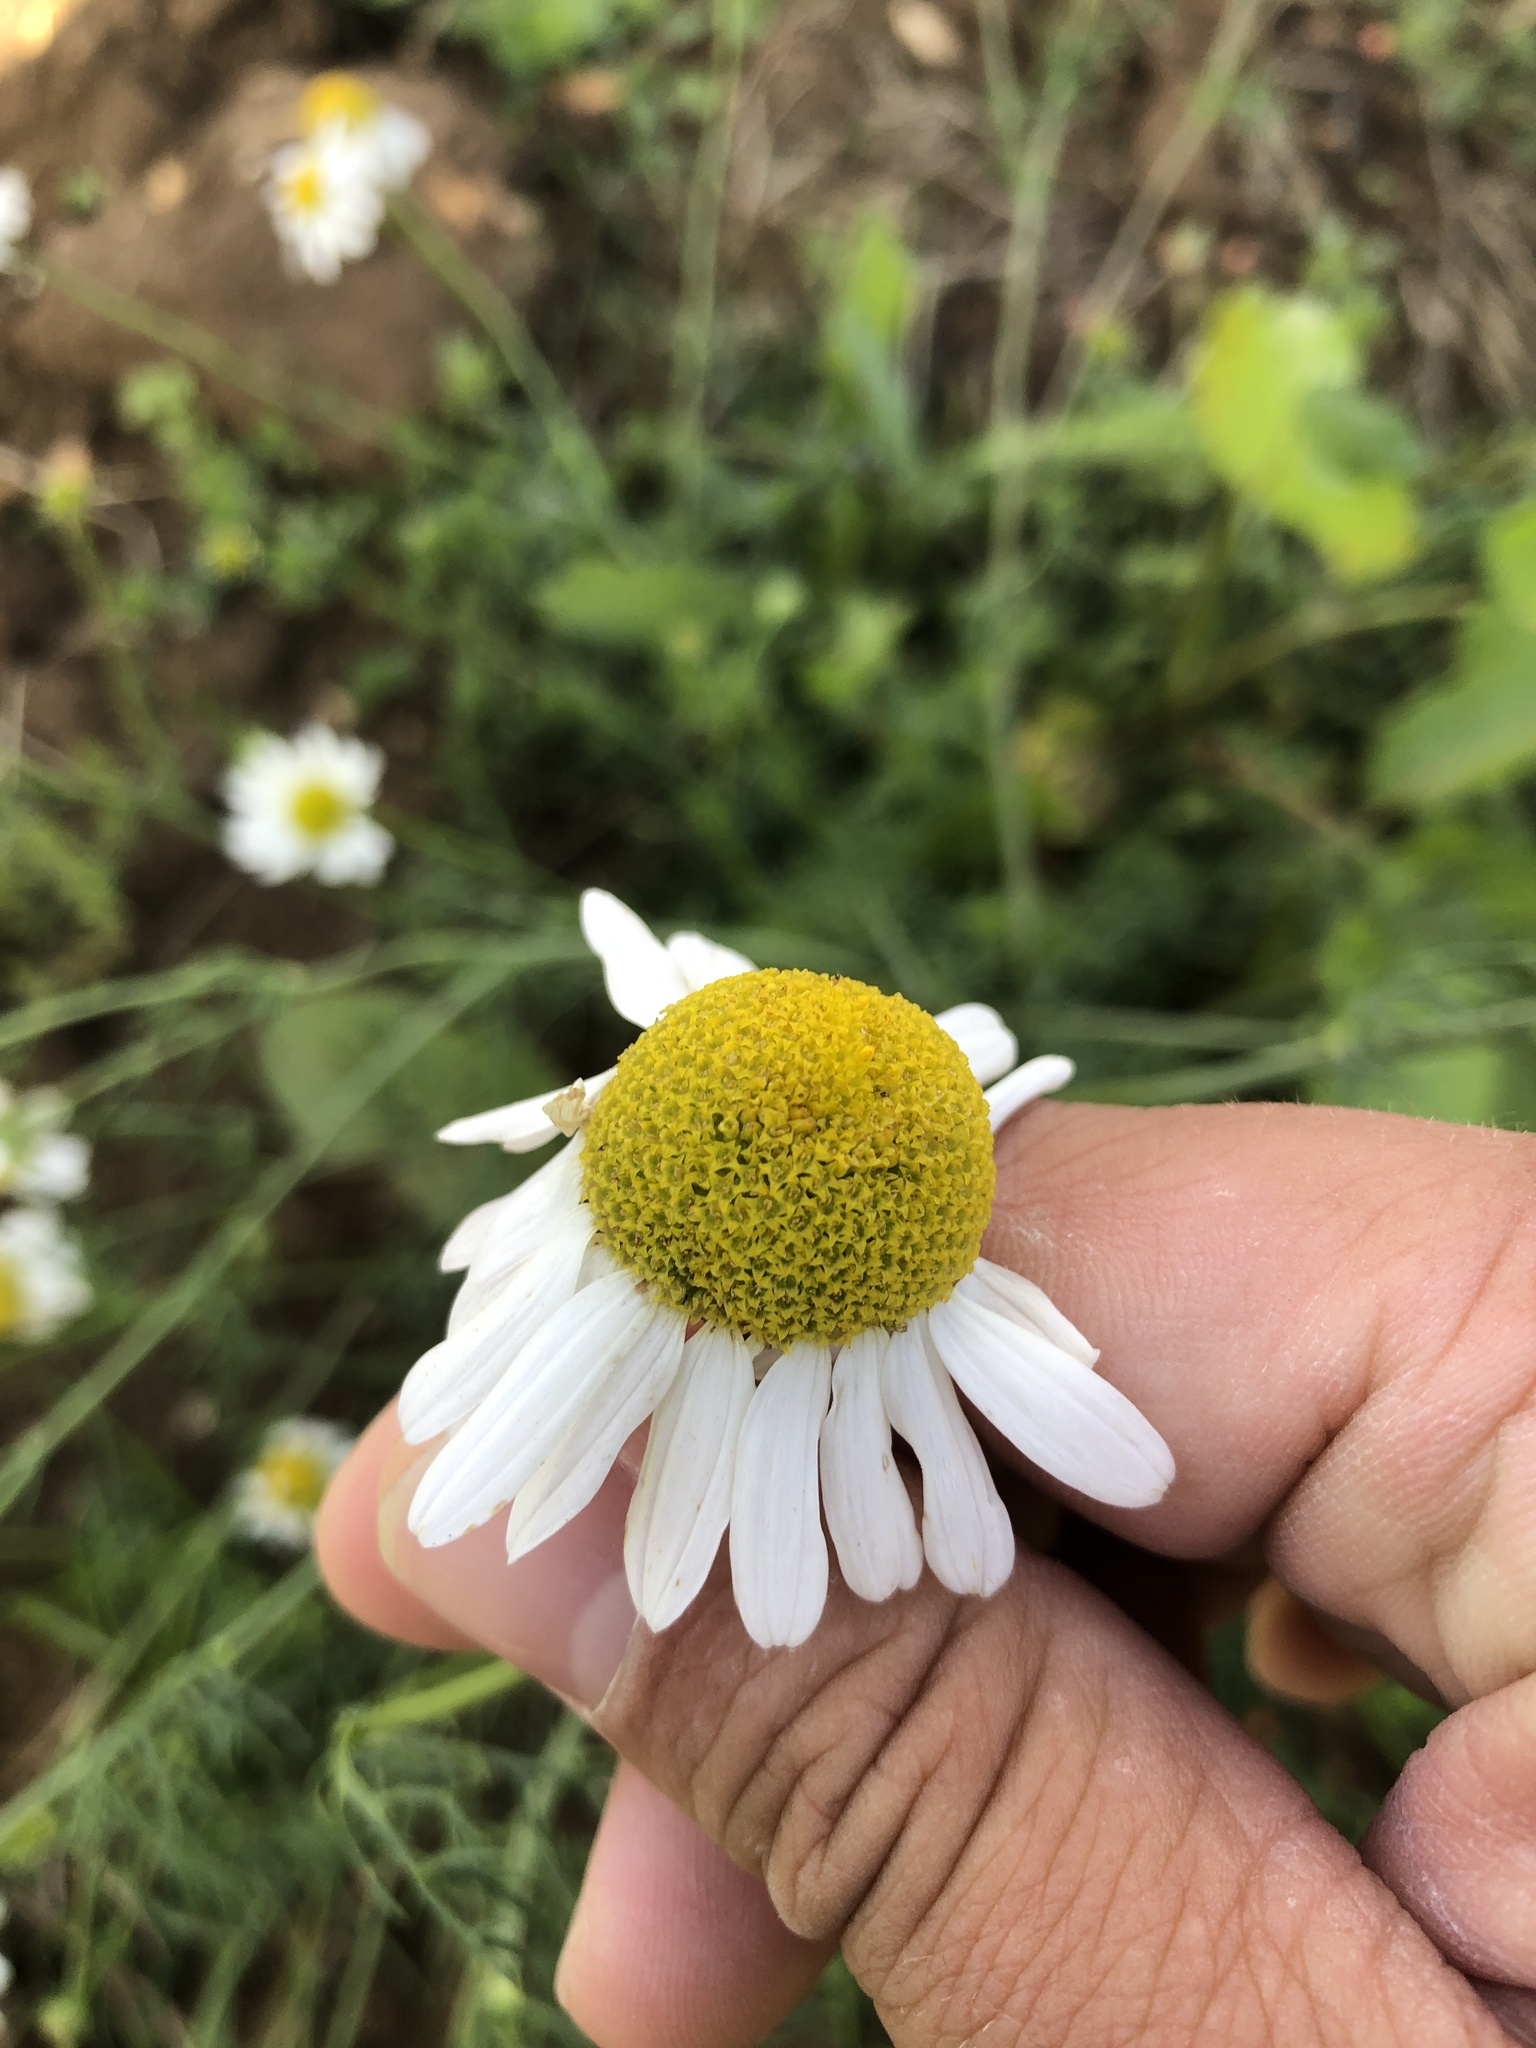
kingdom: Plantae
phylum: Tracheophyta
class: Magnoliopsida
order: Asterales
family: Asteraceae
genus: Tripleurospermum
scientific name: Tripleurospermum inodorum
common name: Scentless mayweed
